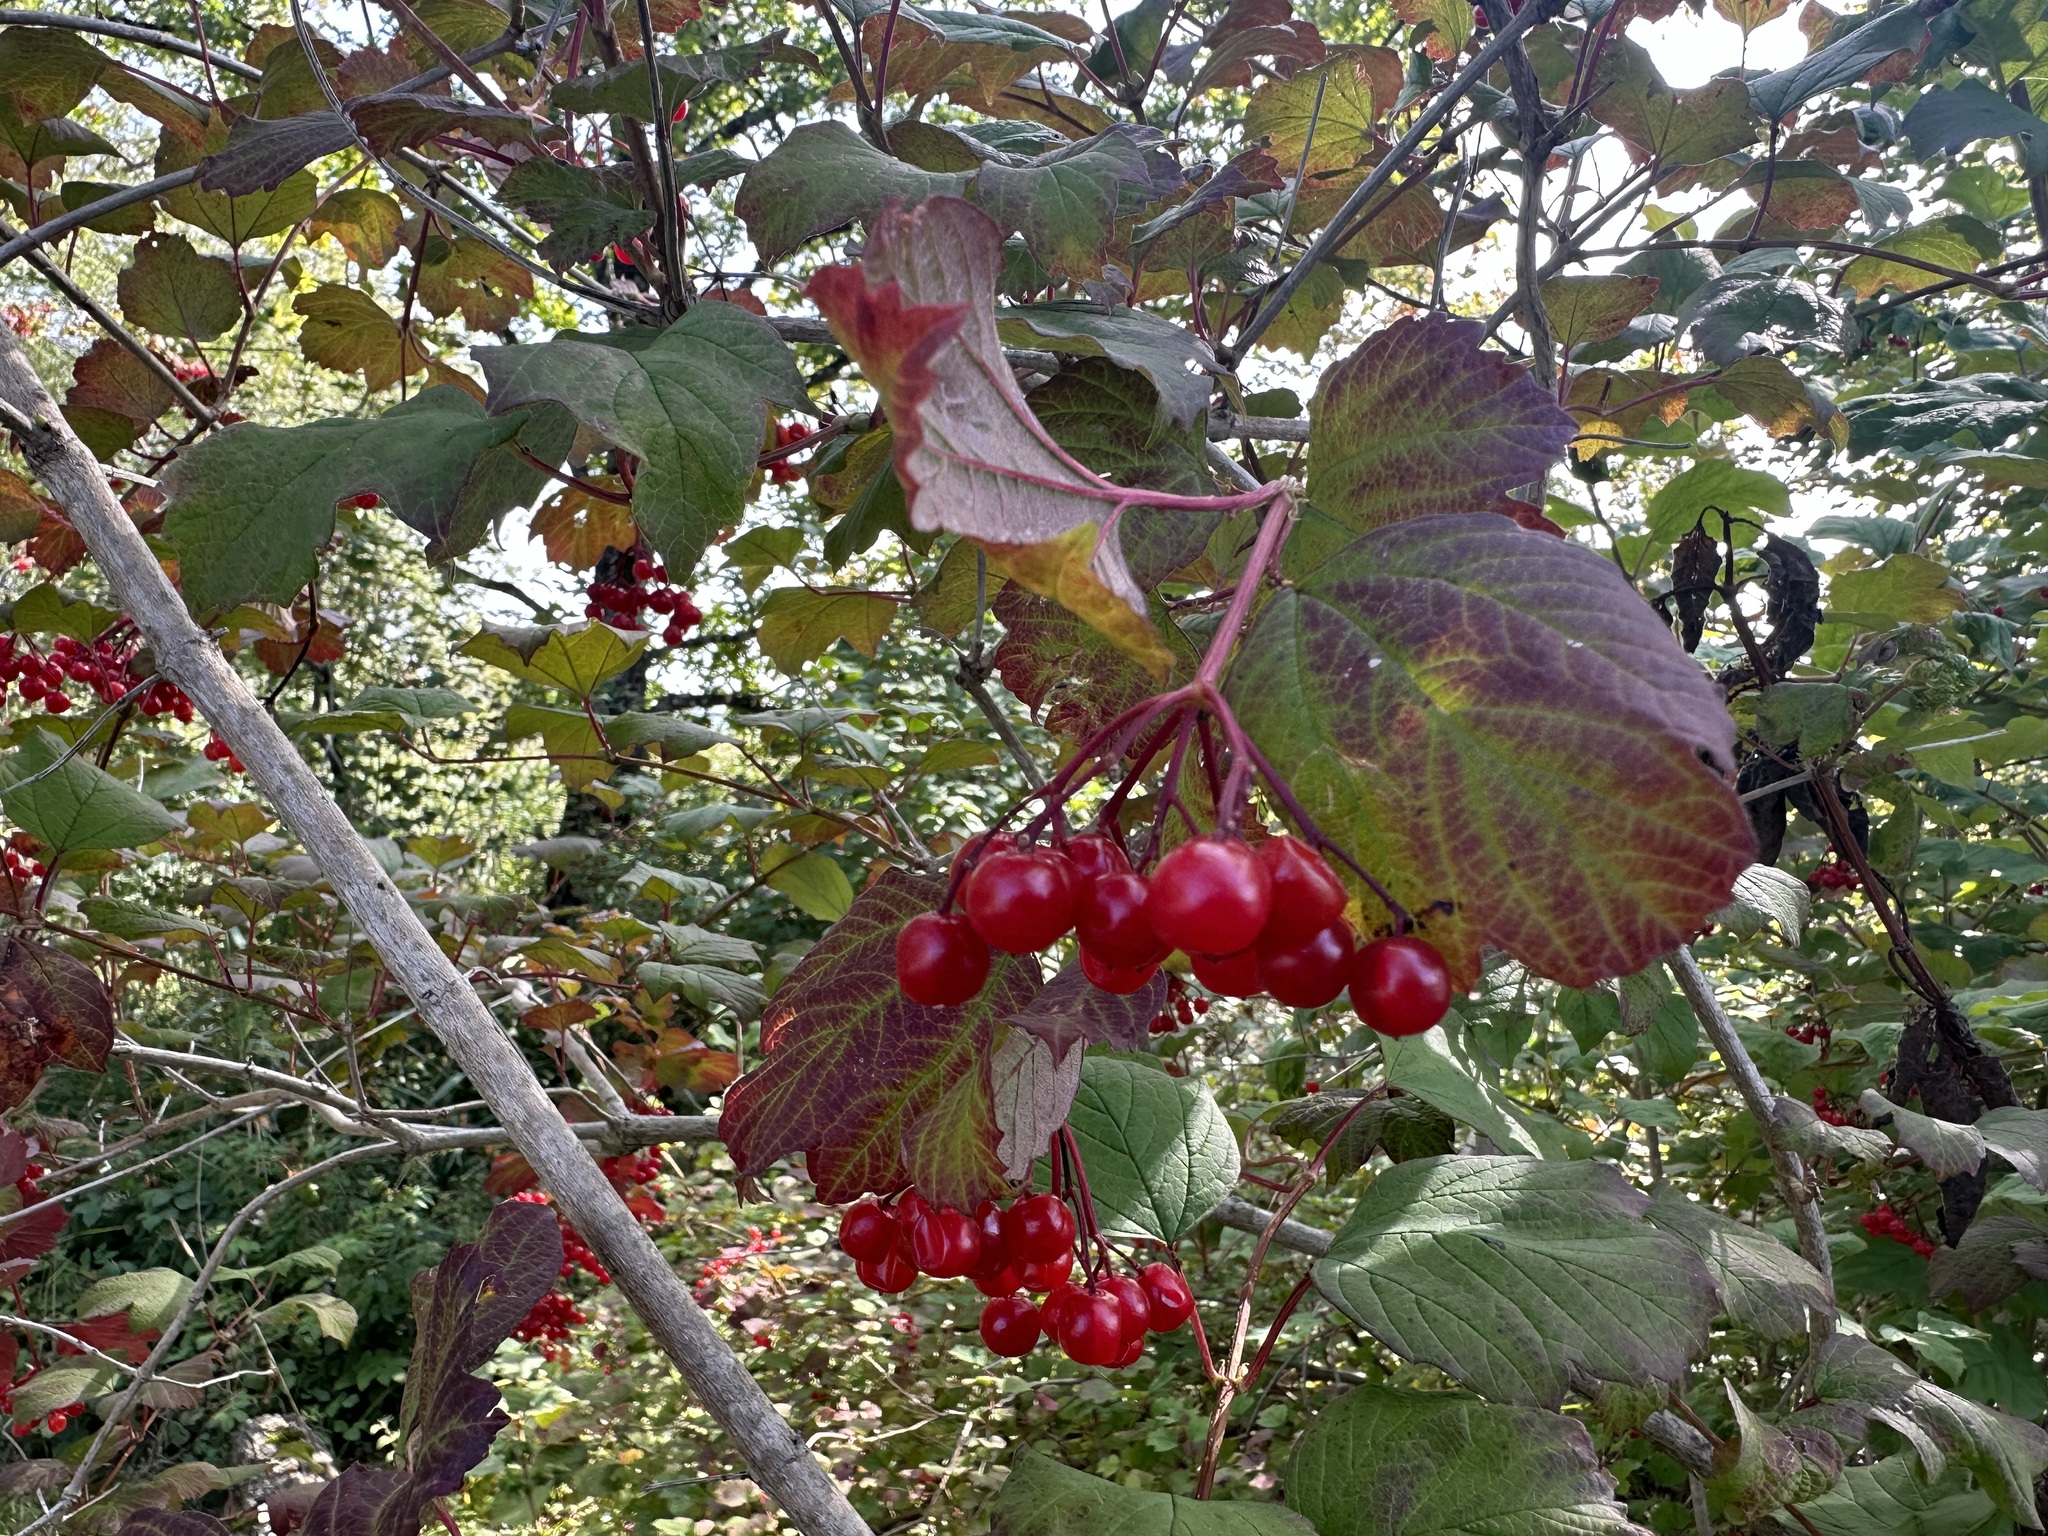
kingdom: Plantae
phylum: Tracheophyta
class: Magnoliopsida
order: Dipsacales
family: Viburnaceae
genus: Viburnum
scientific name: Viburnum opulus
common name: Guelder-rose
